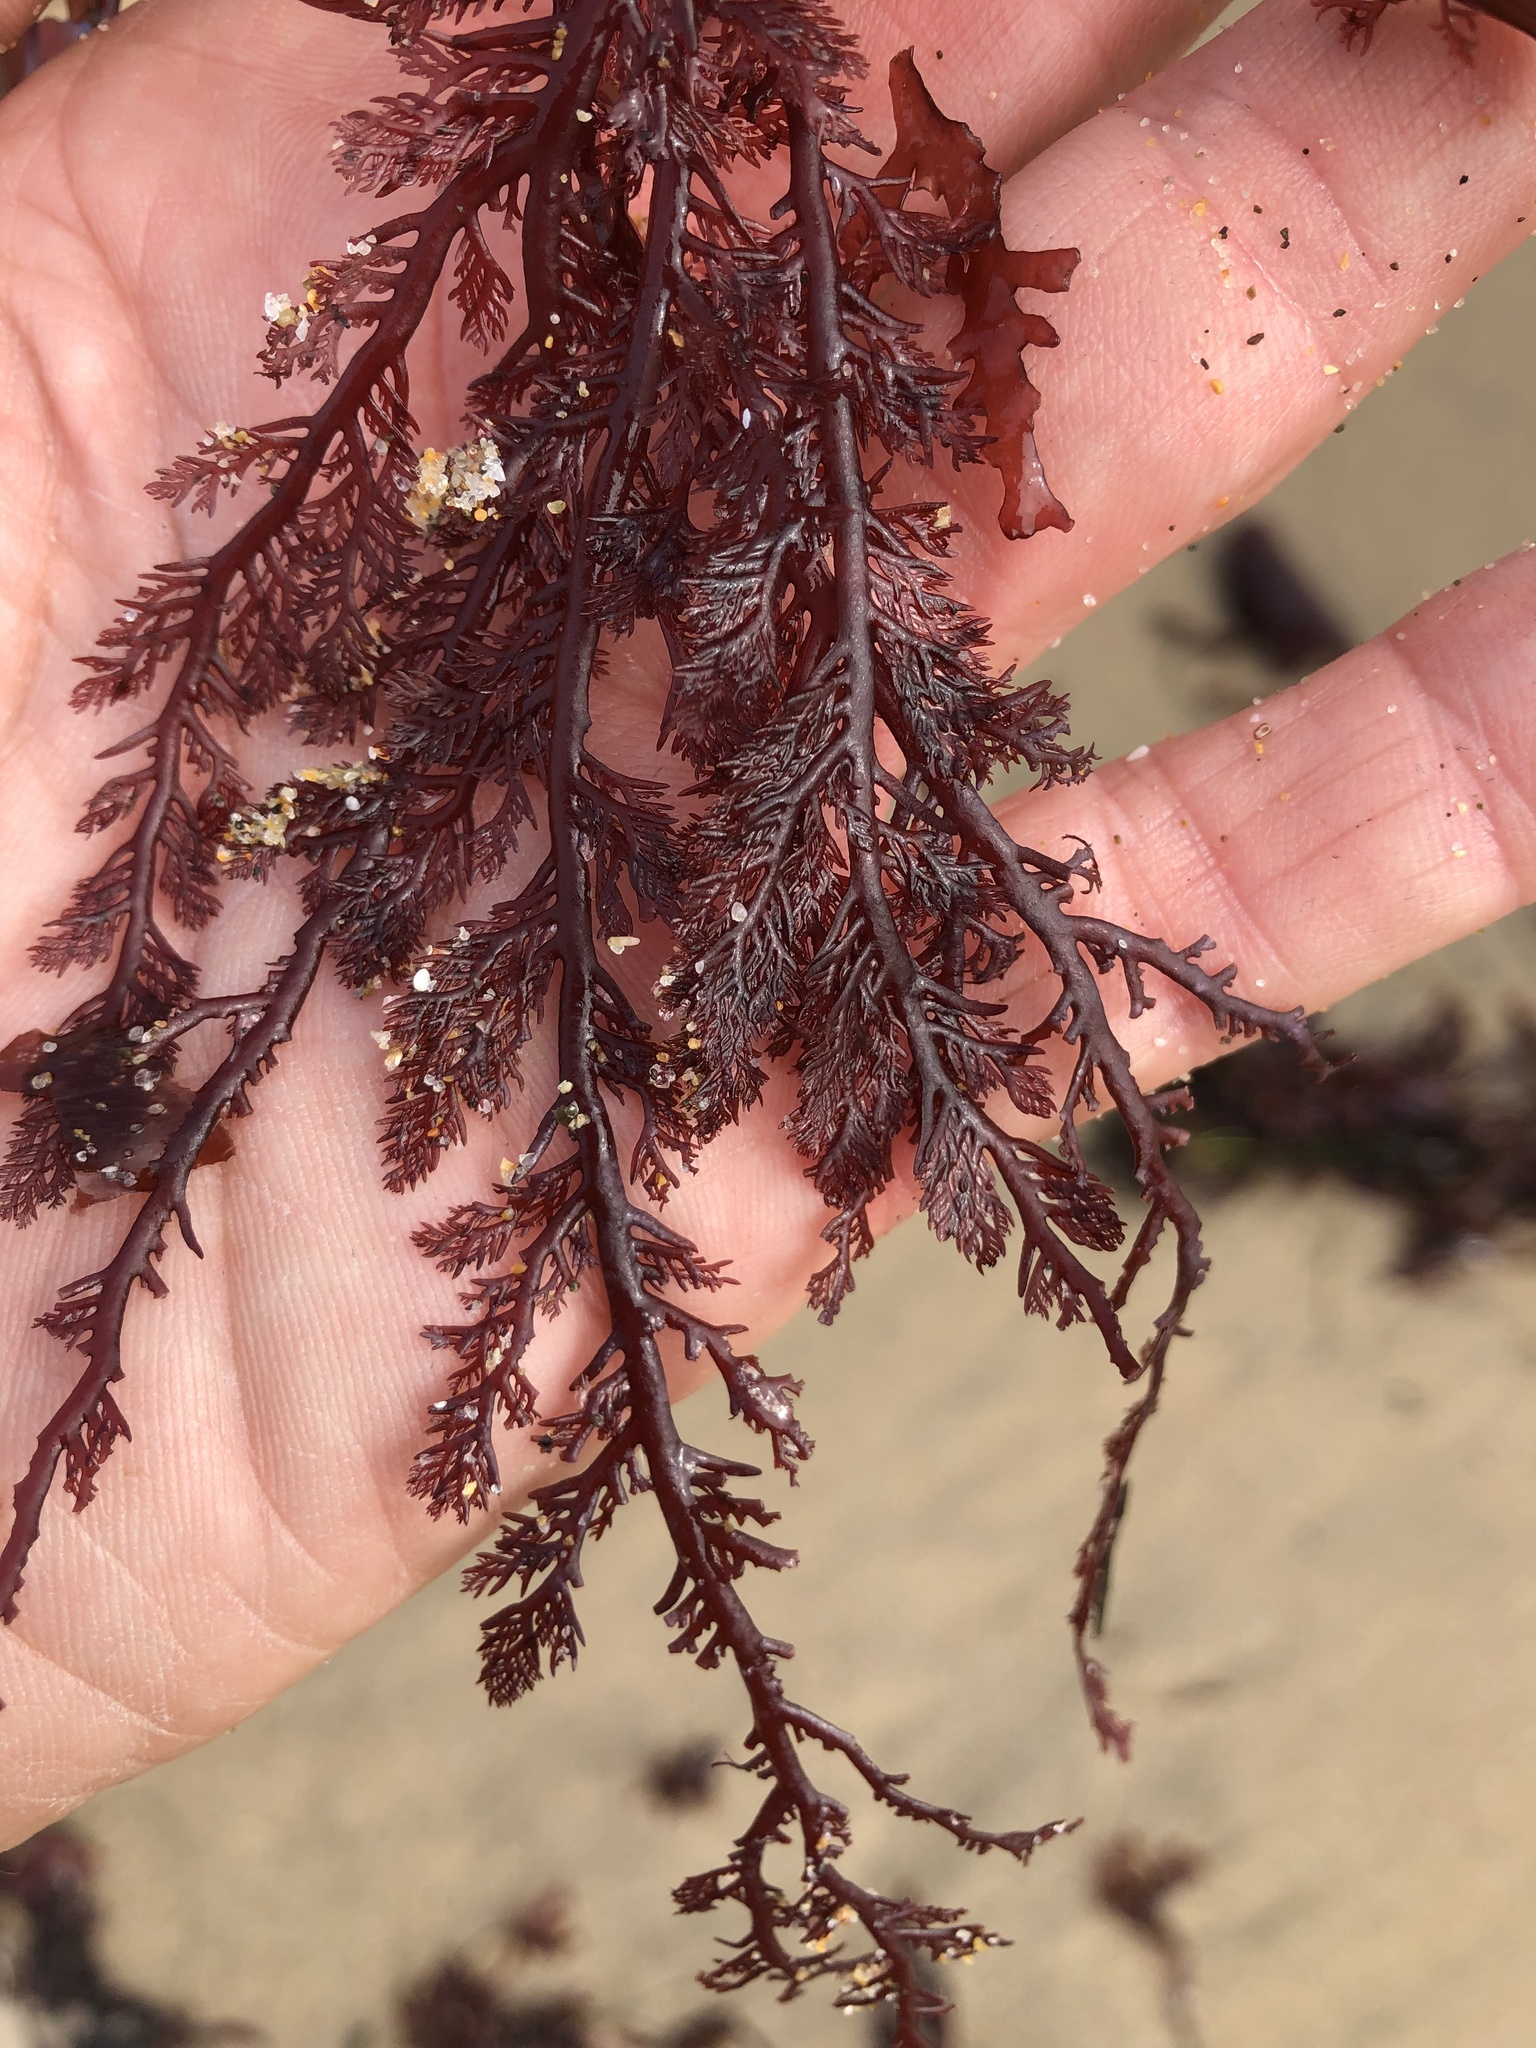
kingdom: Plantae
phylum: Rhodophyta
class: Florideophyceae
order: Plocamiales
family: Plocamiaceae
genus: Plocamium
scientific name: Plocamium cartilagineum
